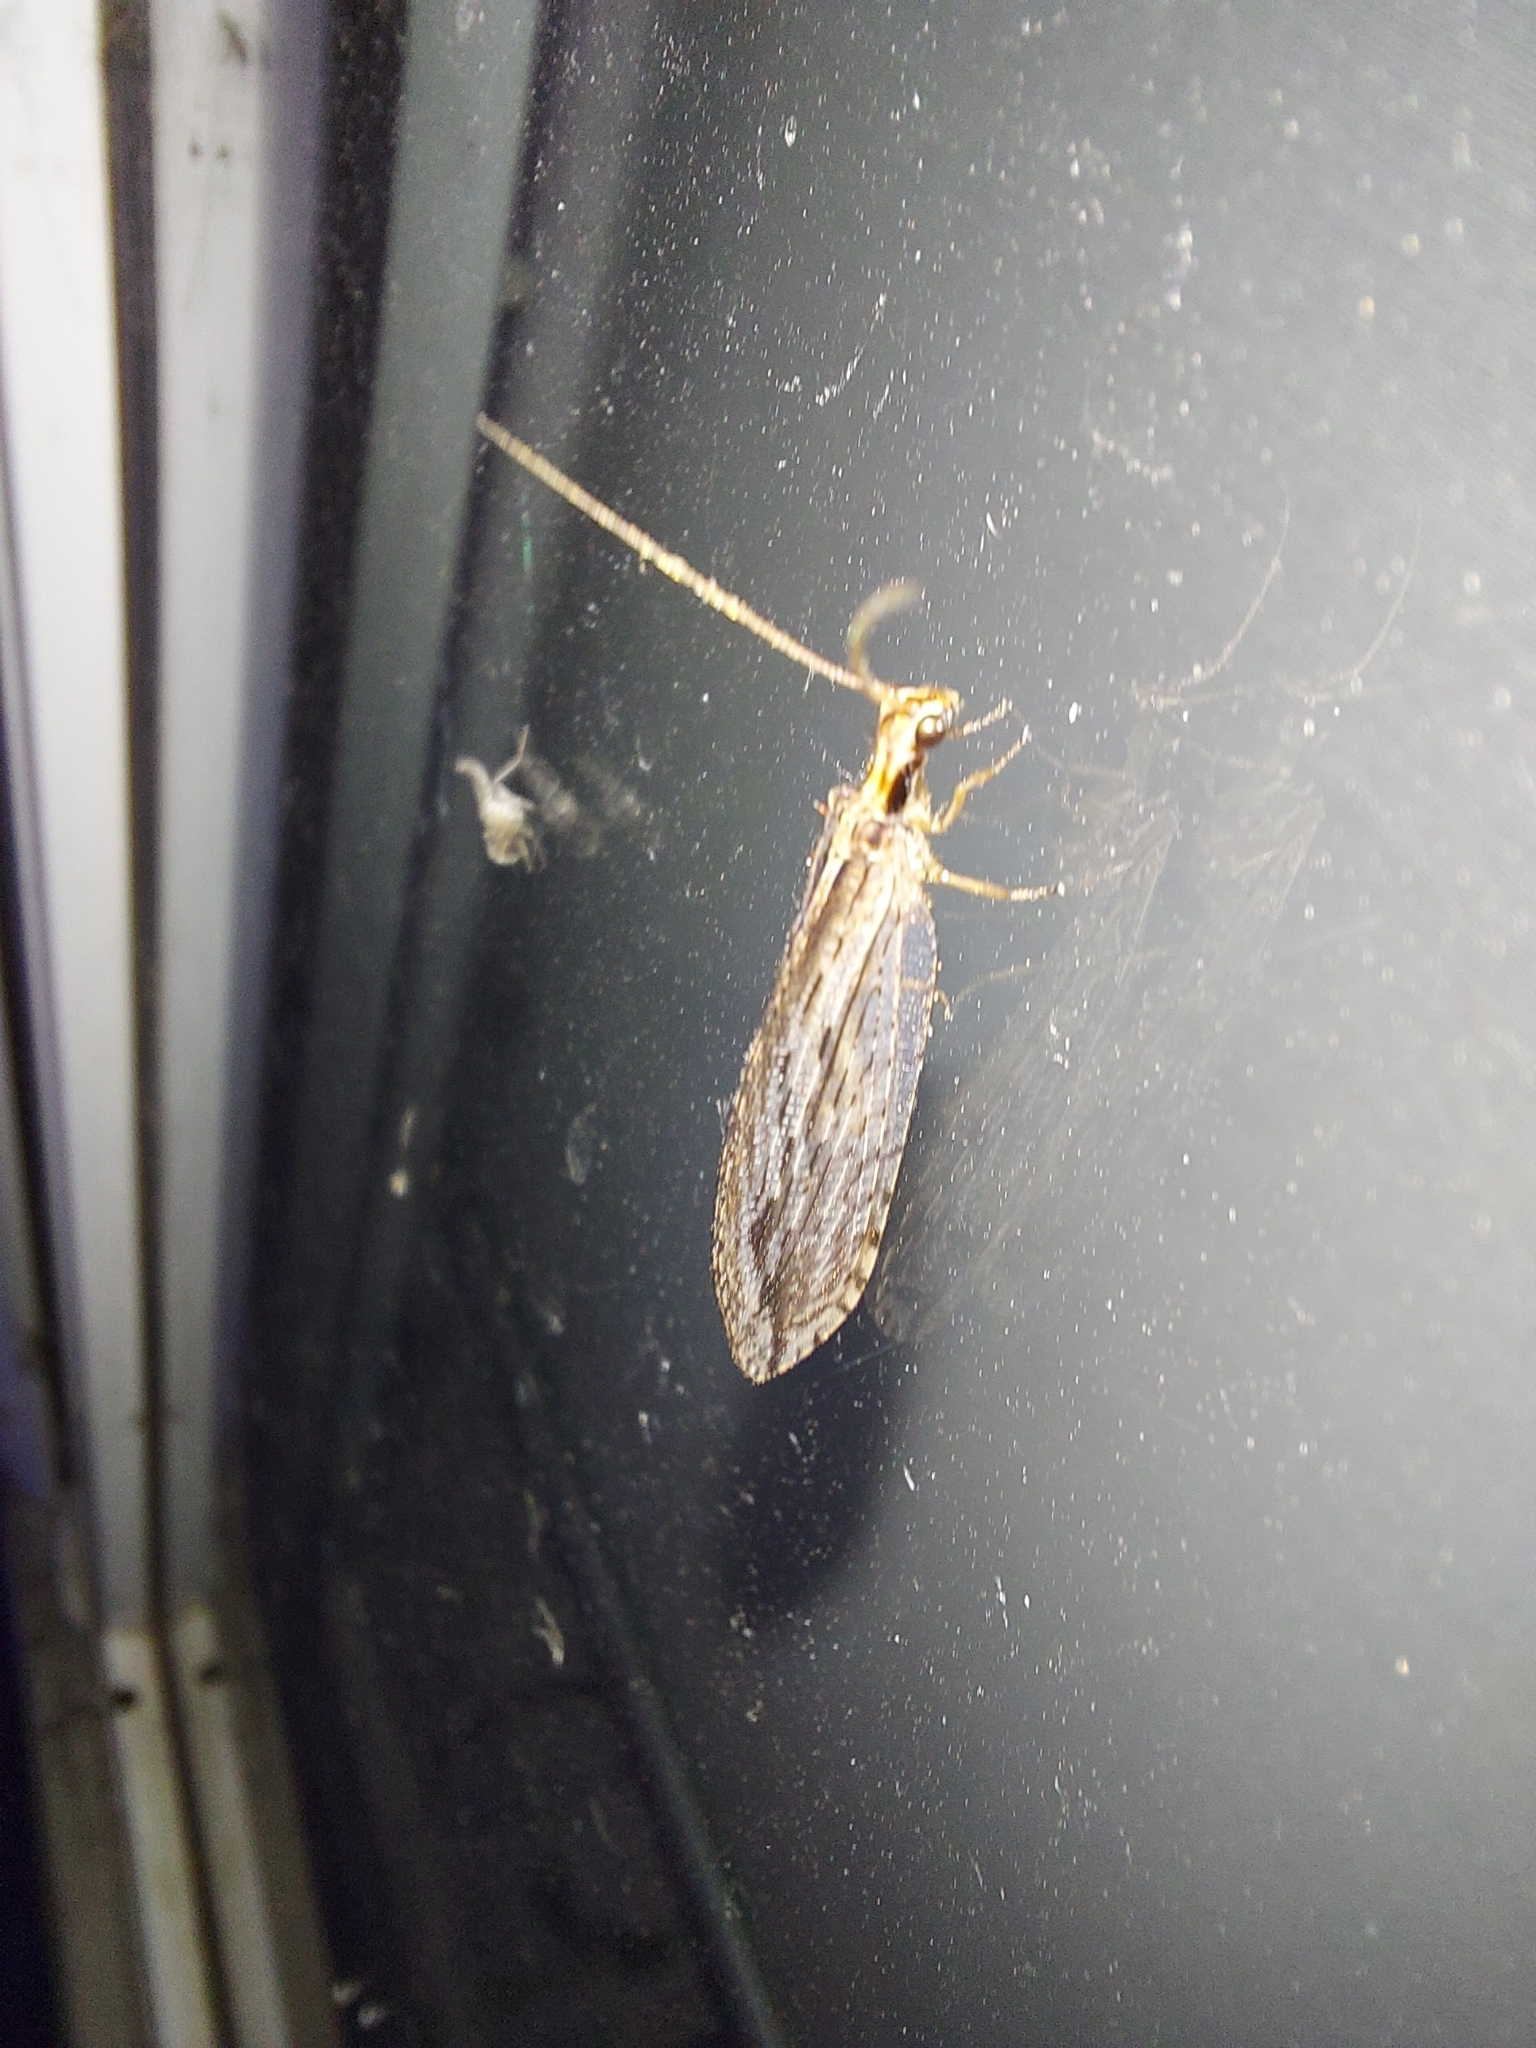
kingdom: Animalia
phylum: Arthropoda
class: Insecta
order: Neuroptera
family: Osmylidae
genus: Stenosmylus
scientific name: Stenosmylus stenopterus
